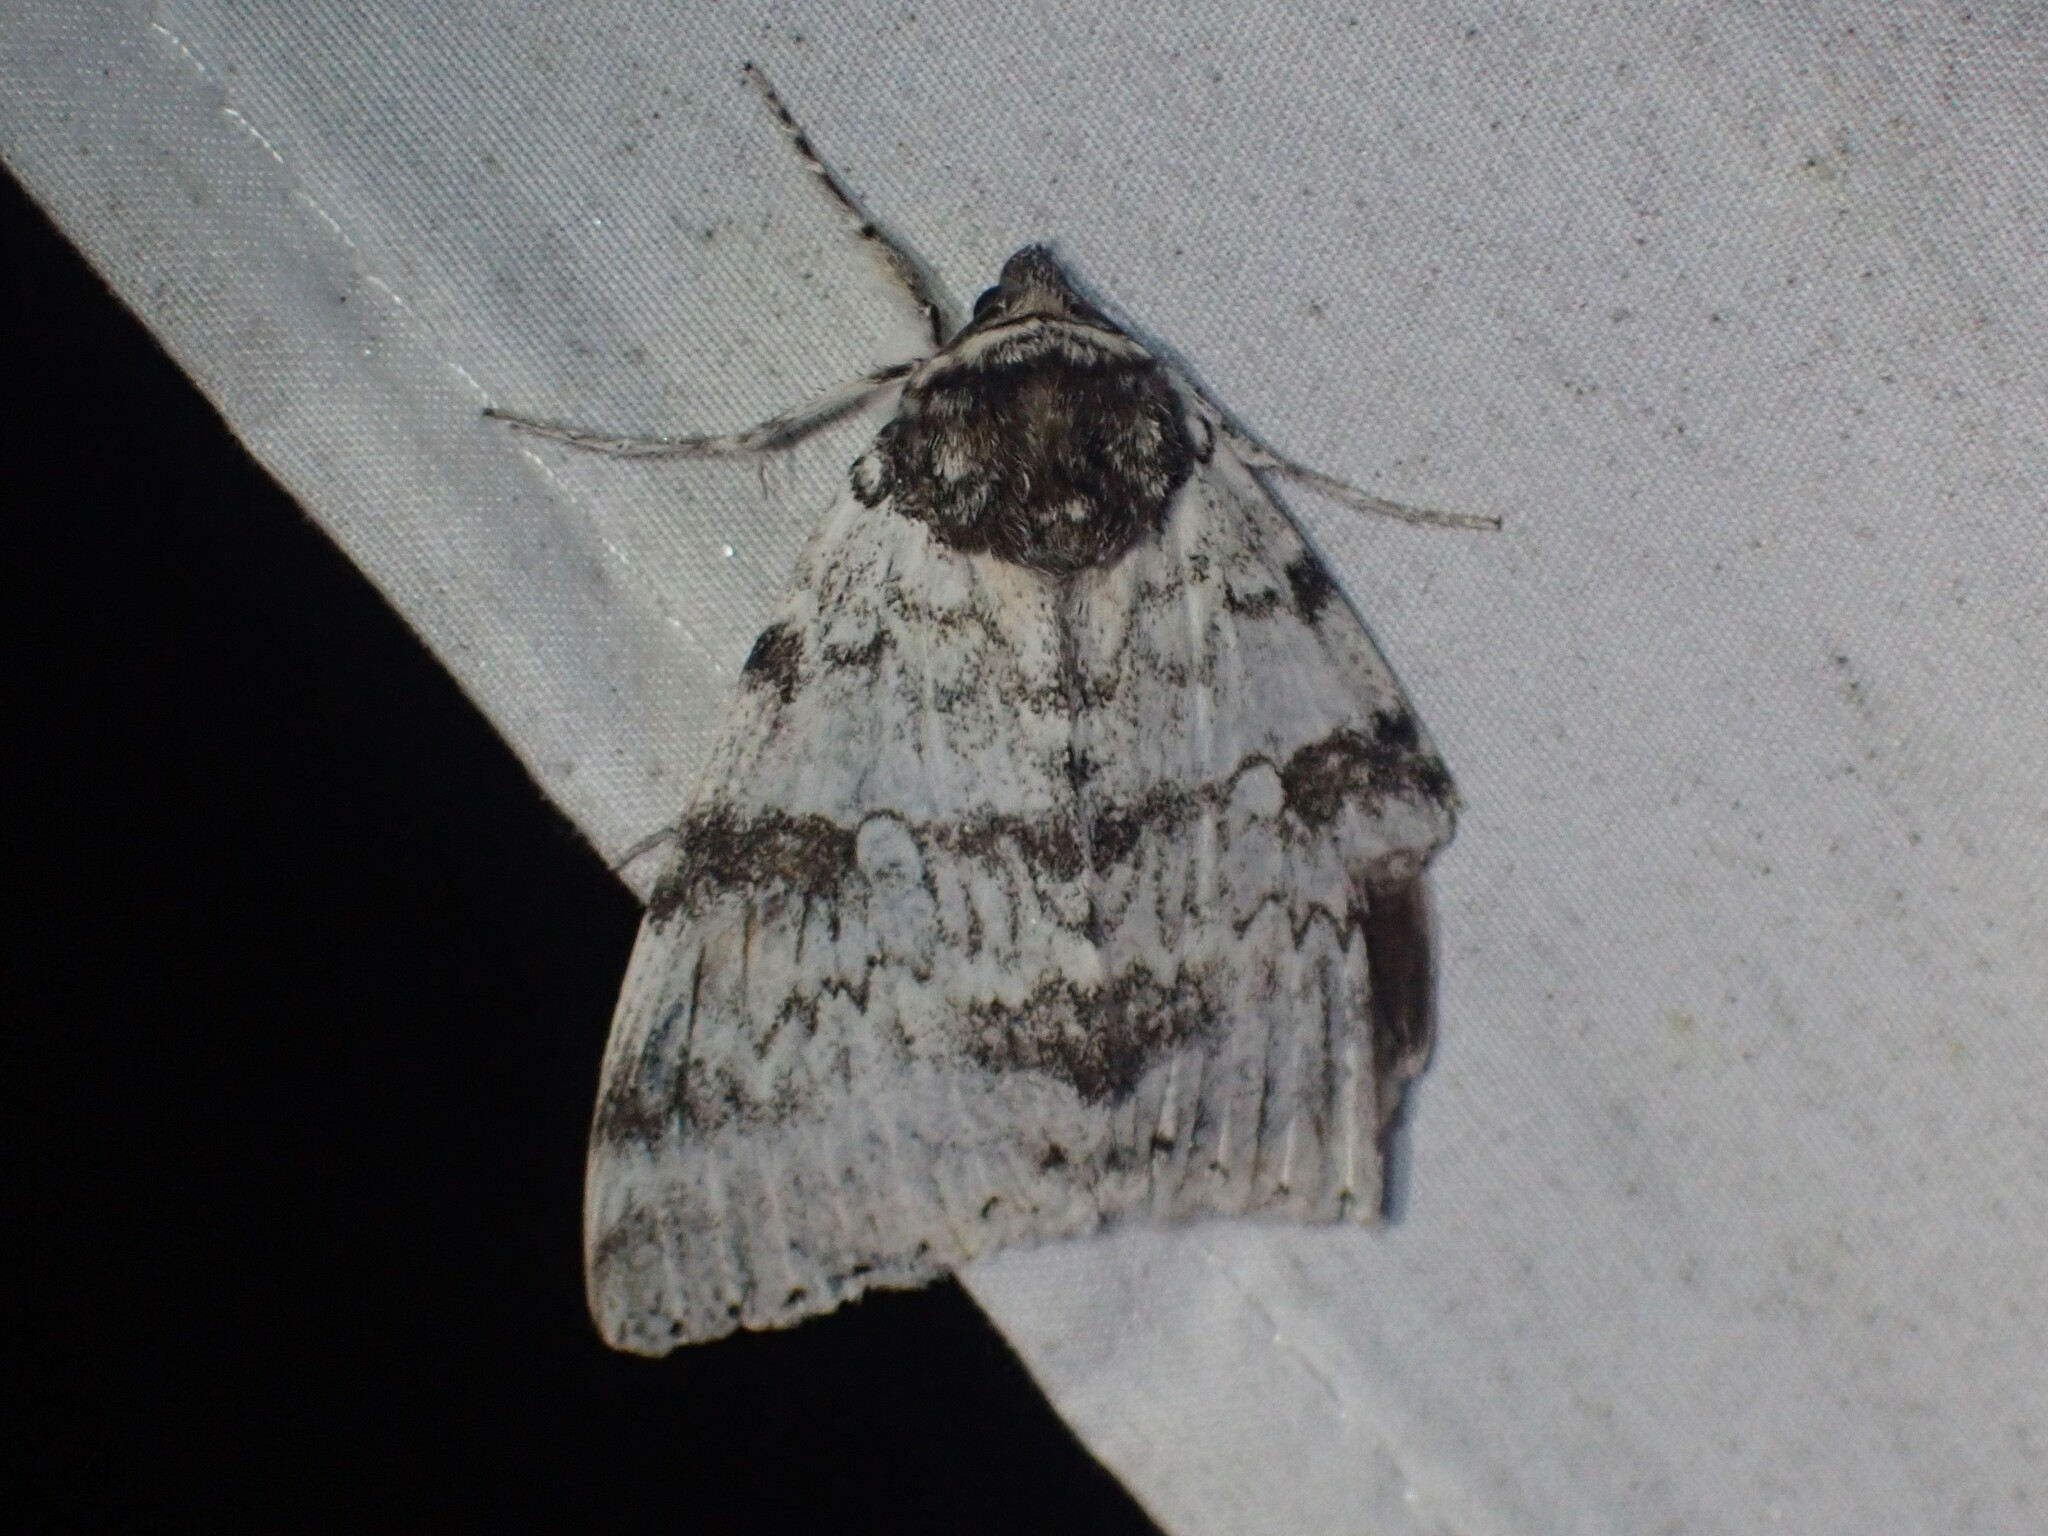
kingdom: Animalia
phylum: Arthropoda
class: Insecta
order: Lepidoptera
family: Erebidae
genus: Catocala
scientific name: Catocala relicta
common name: White underwing
